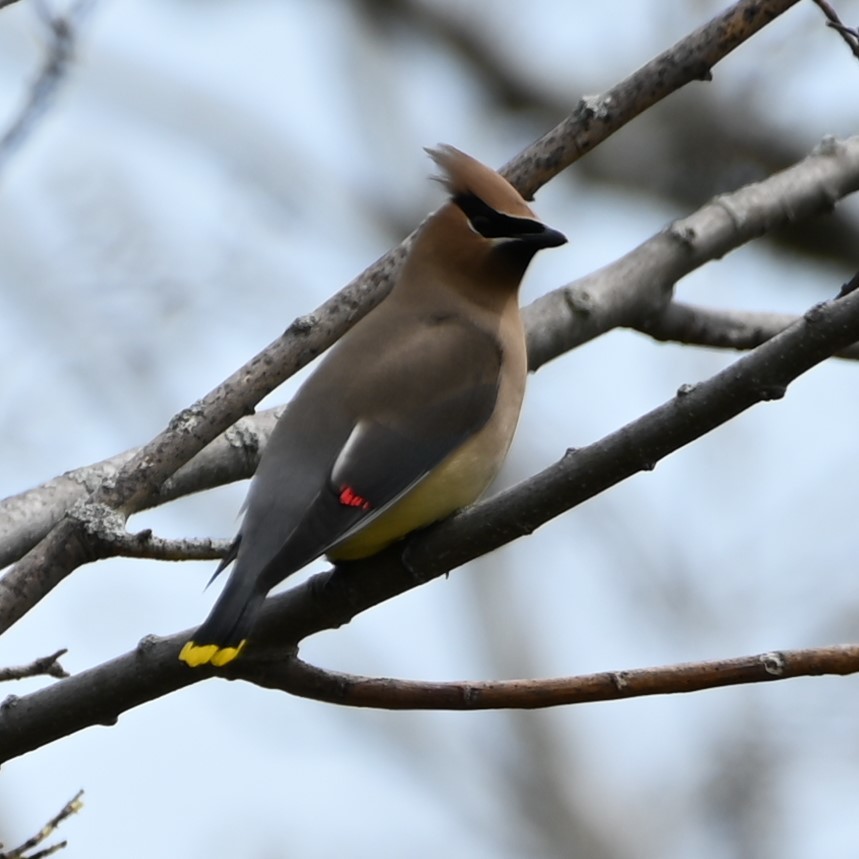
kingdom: Animalia
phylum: Chordata
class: Aves
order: Passeriformes
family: Bombycillidae
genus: Bombycilla
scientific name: Bombycilla cedrorum
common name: Cedar waxwing
